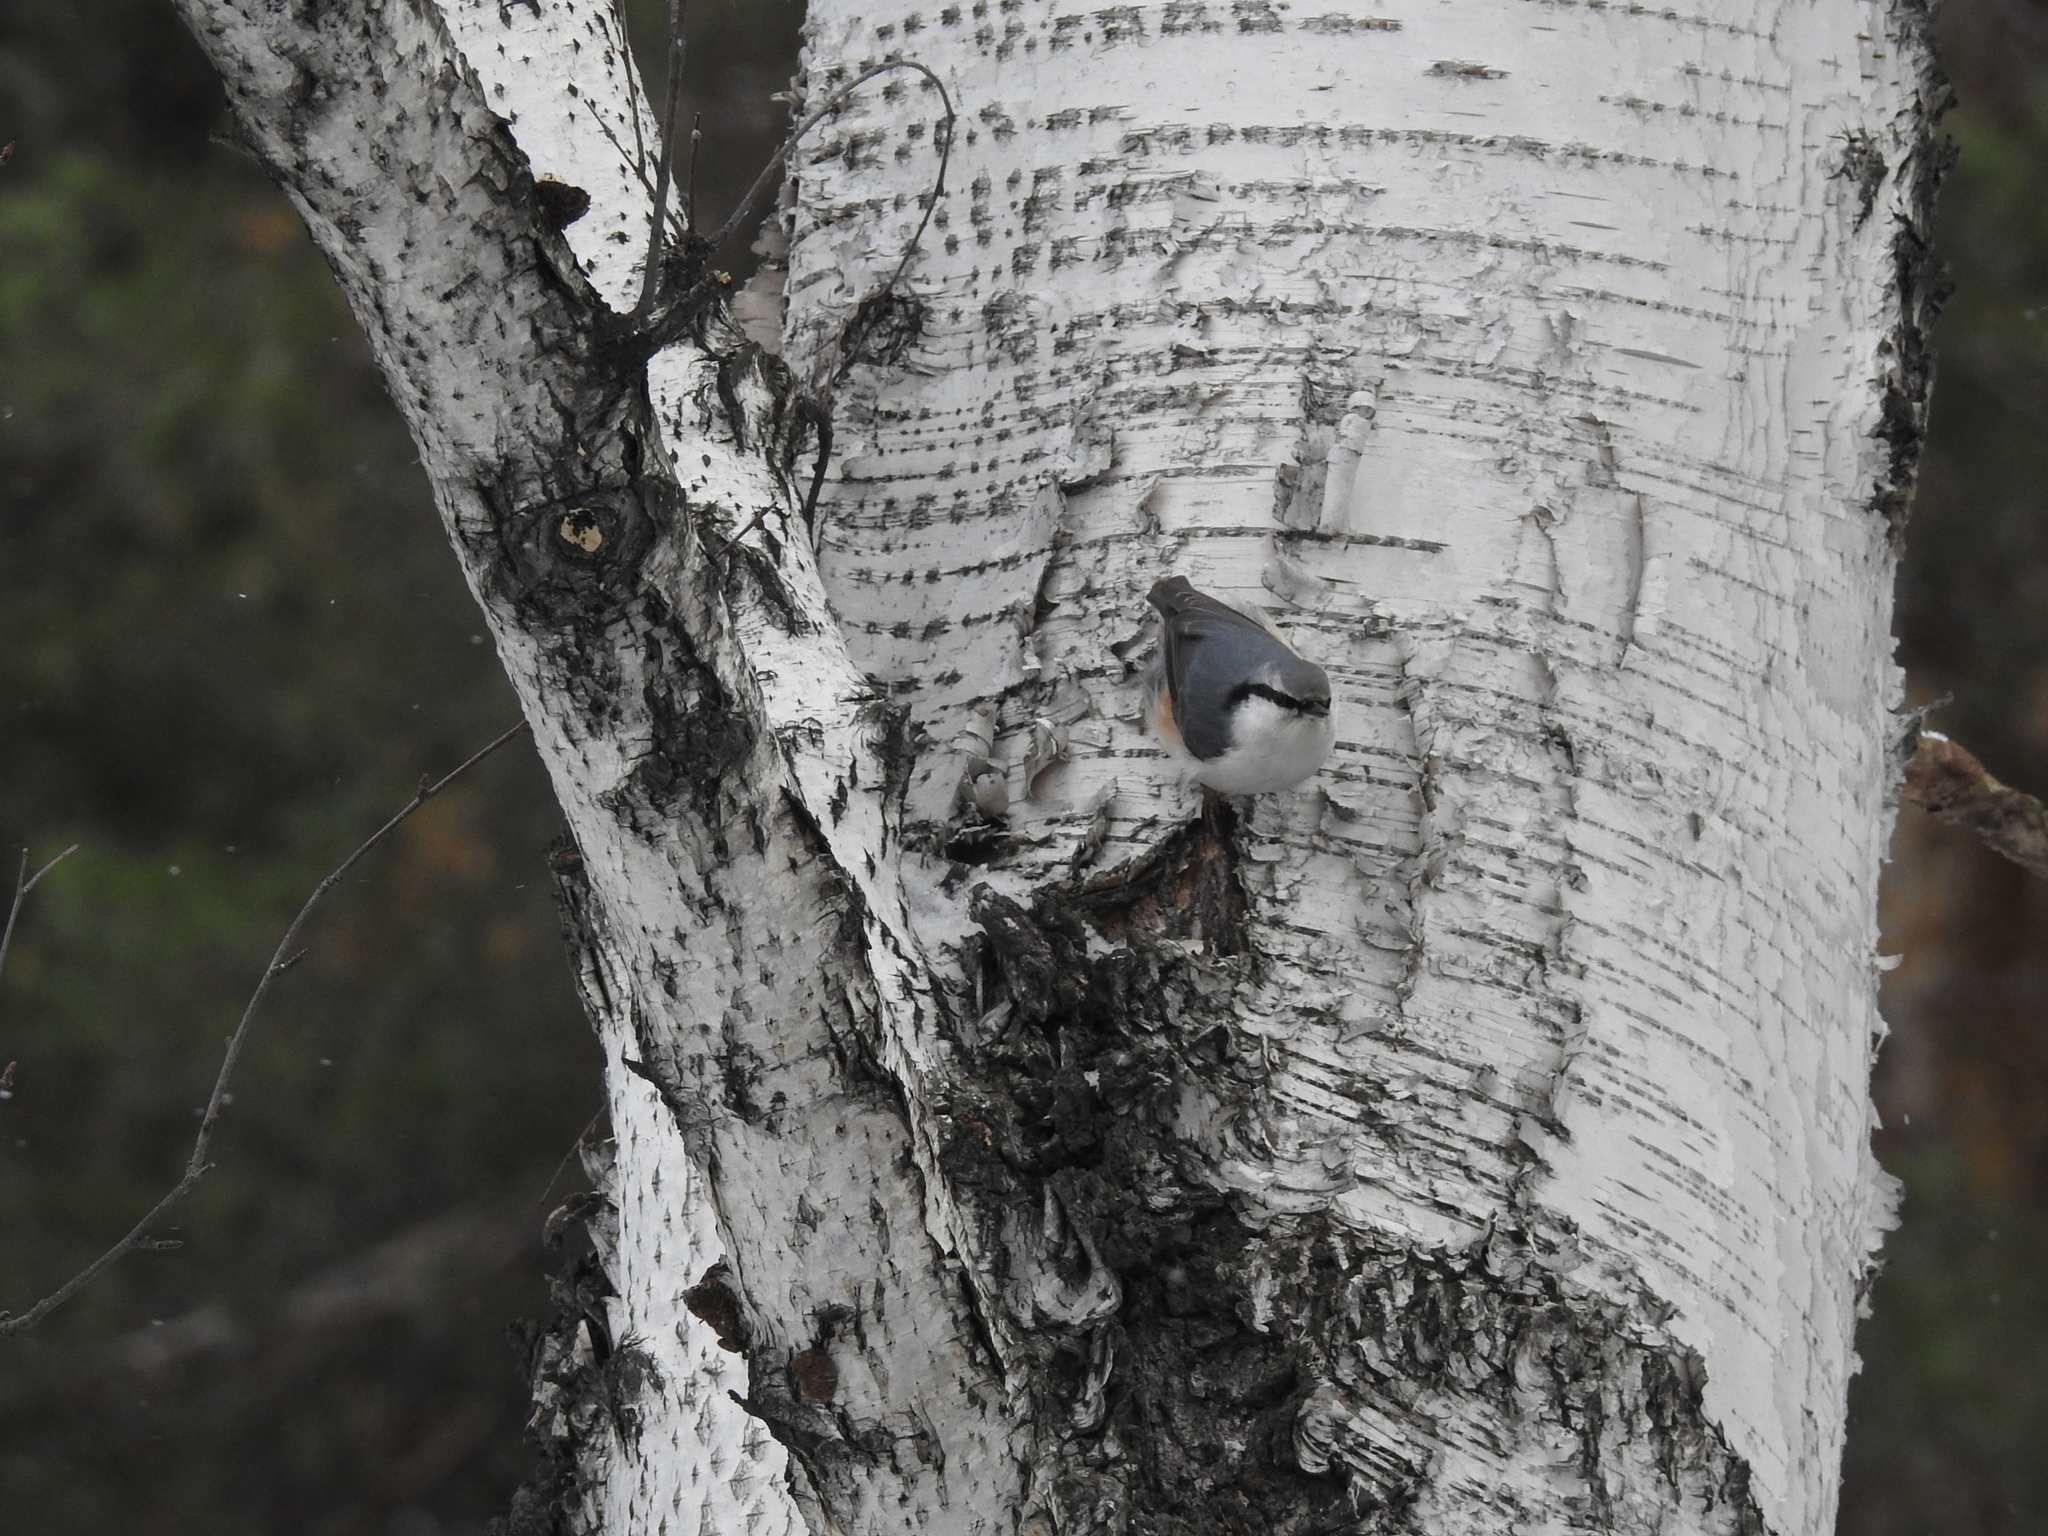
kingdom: Animalia
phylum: Chordata
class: Aves
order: Passeriformes
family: Sittidae
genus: Sitta
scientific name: Sitta europaea
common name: Eurasian nuthatch
